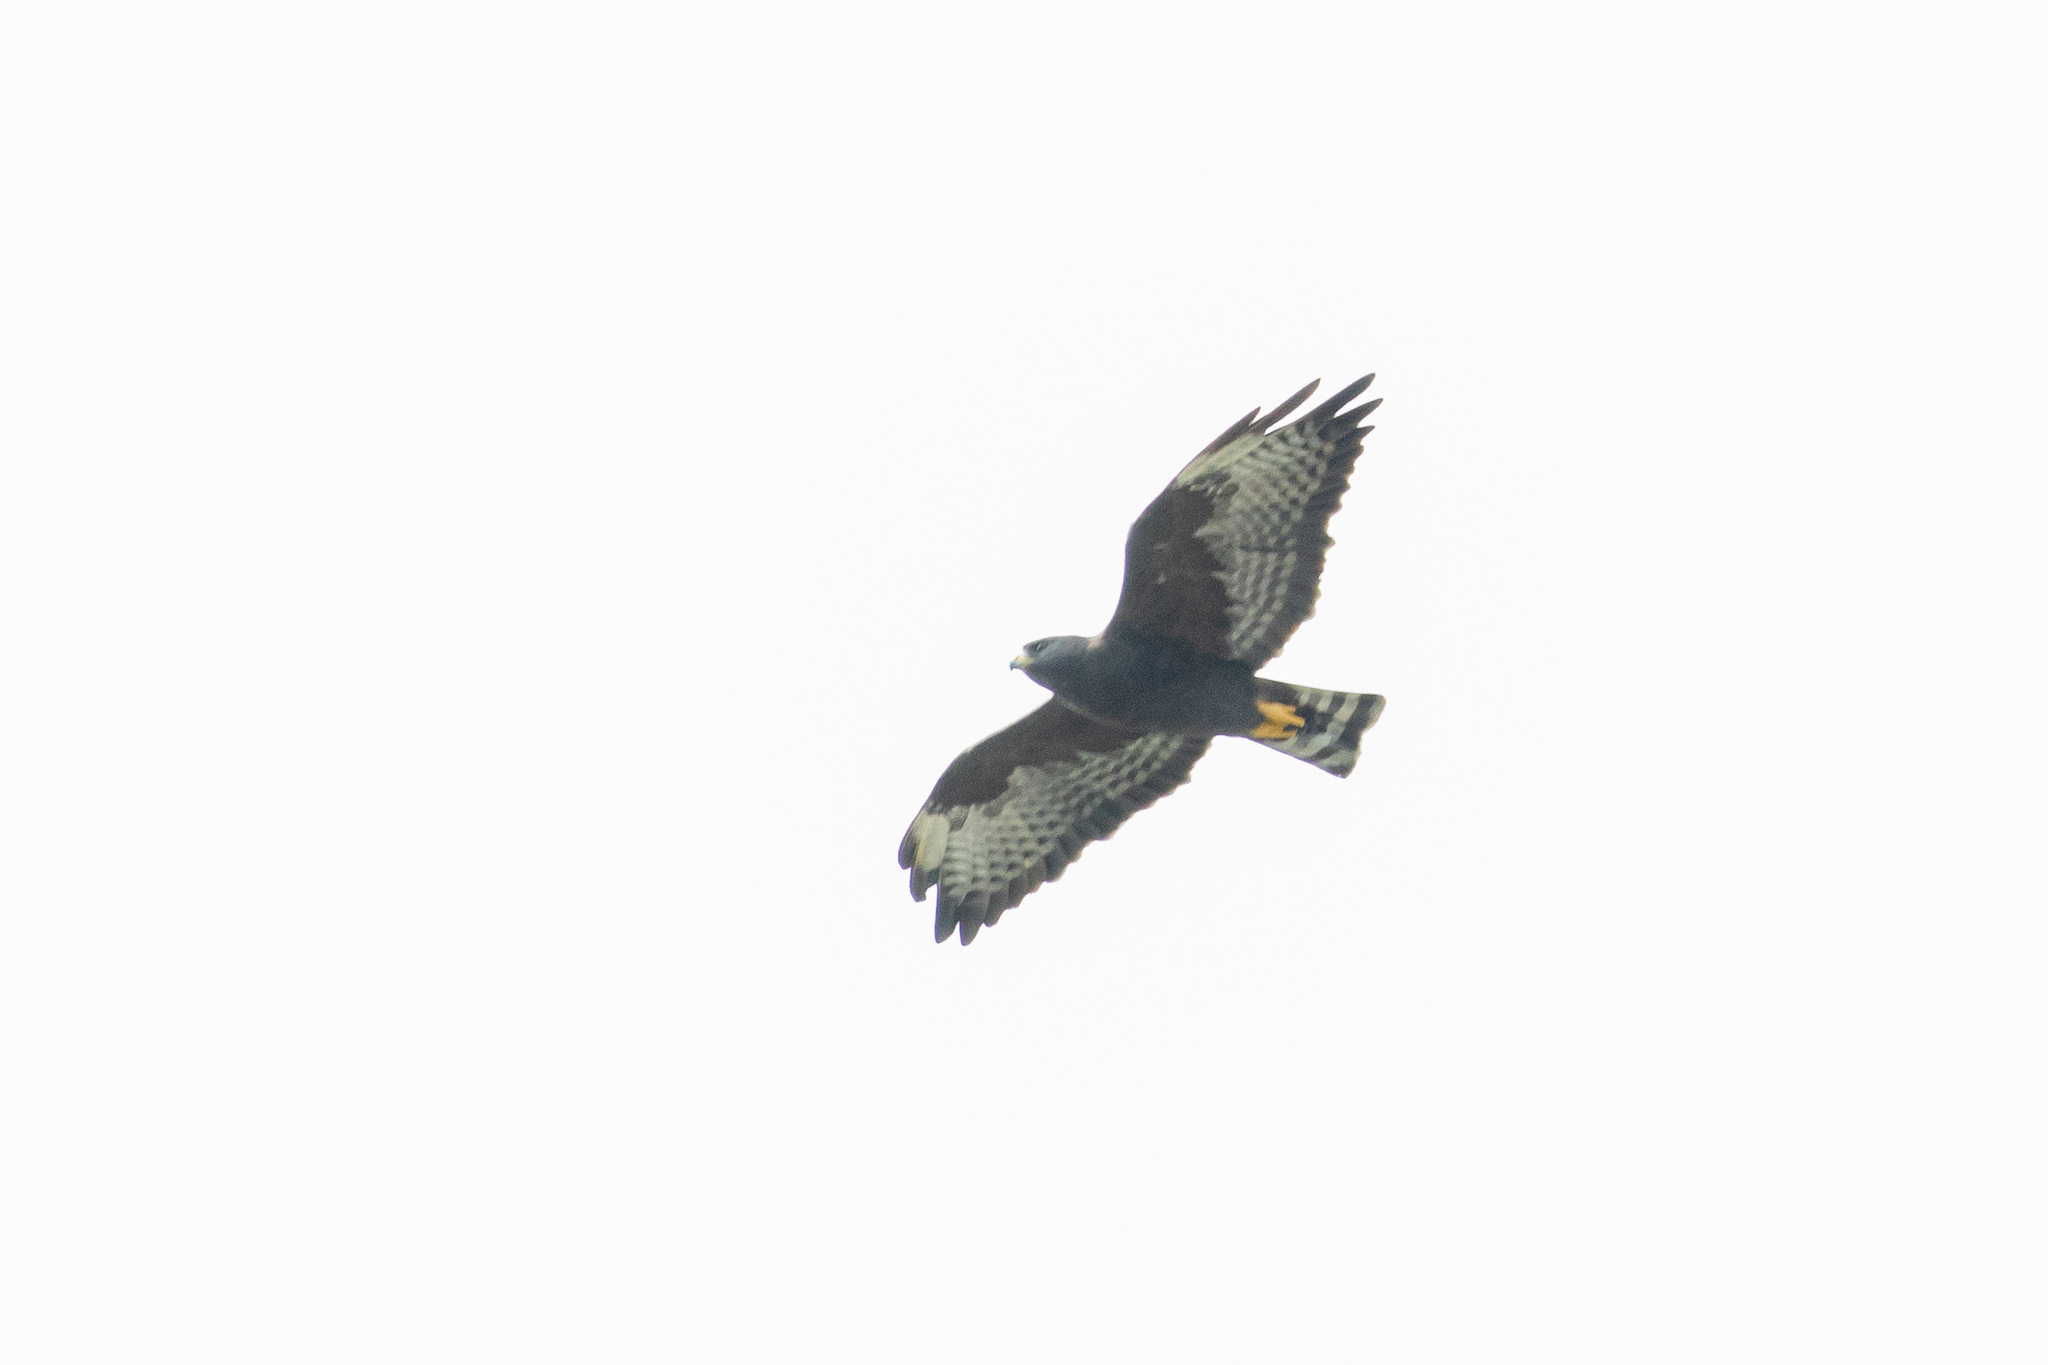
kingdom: Animalia
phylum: Chordata
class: Aves
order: Accipitriformes
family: Accipitridae
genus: Buteo
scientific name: Buteo brachyurus
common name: Short-tailed hawk
